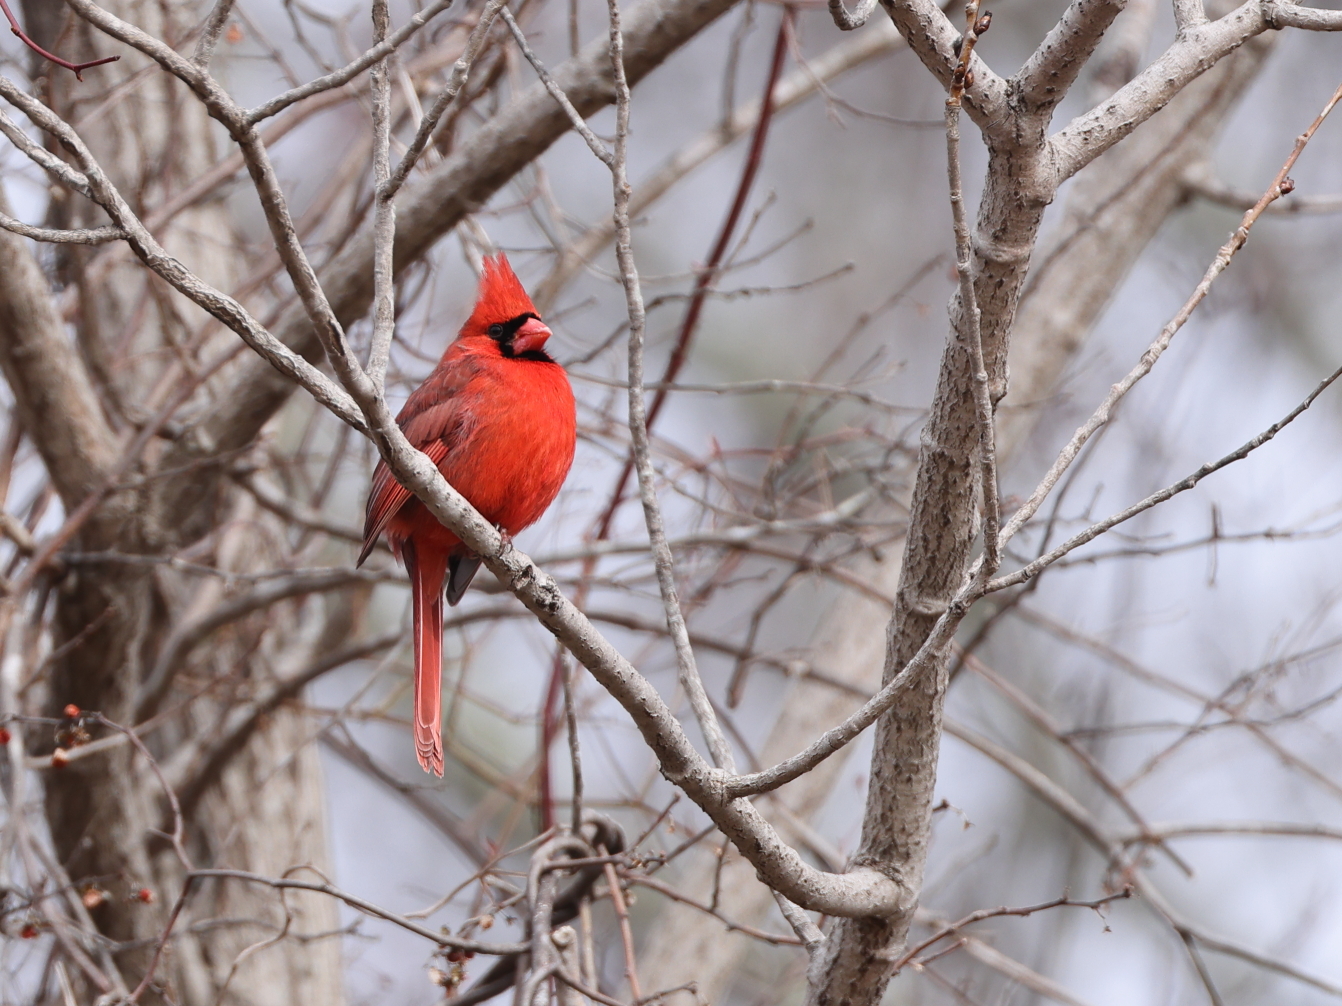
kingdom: Animalia
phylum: Chordata
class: Aves
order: Passeriformes
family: Cardinalidae
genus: Cardinalis
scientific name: Cardinalis cardinalis
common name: Northern cardinal
